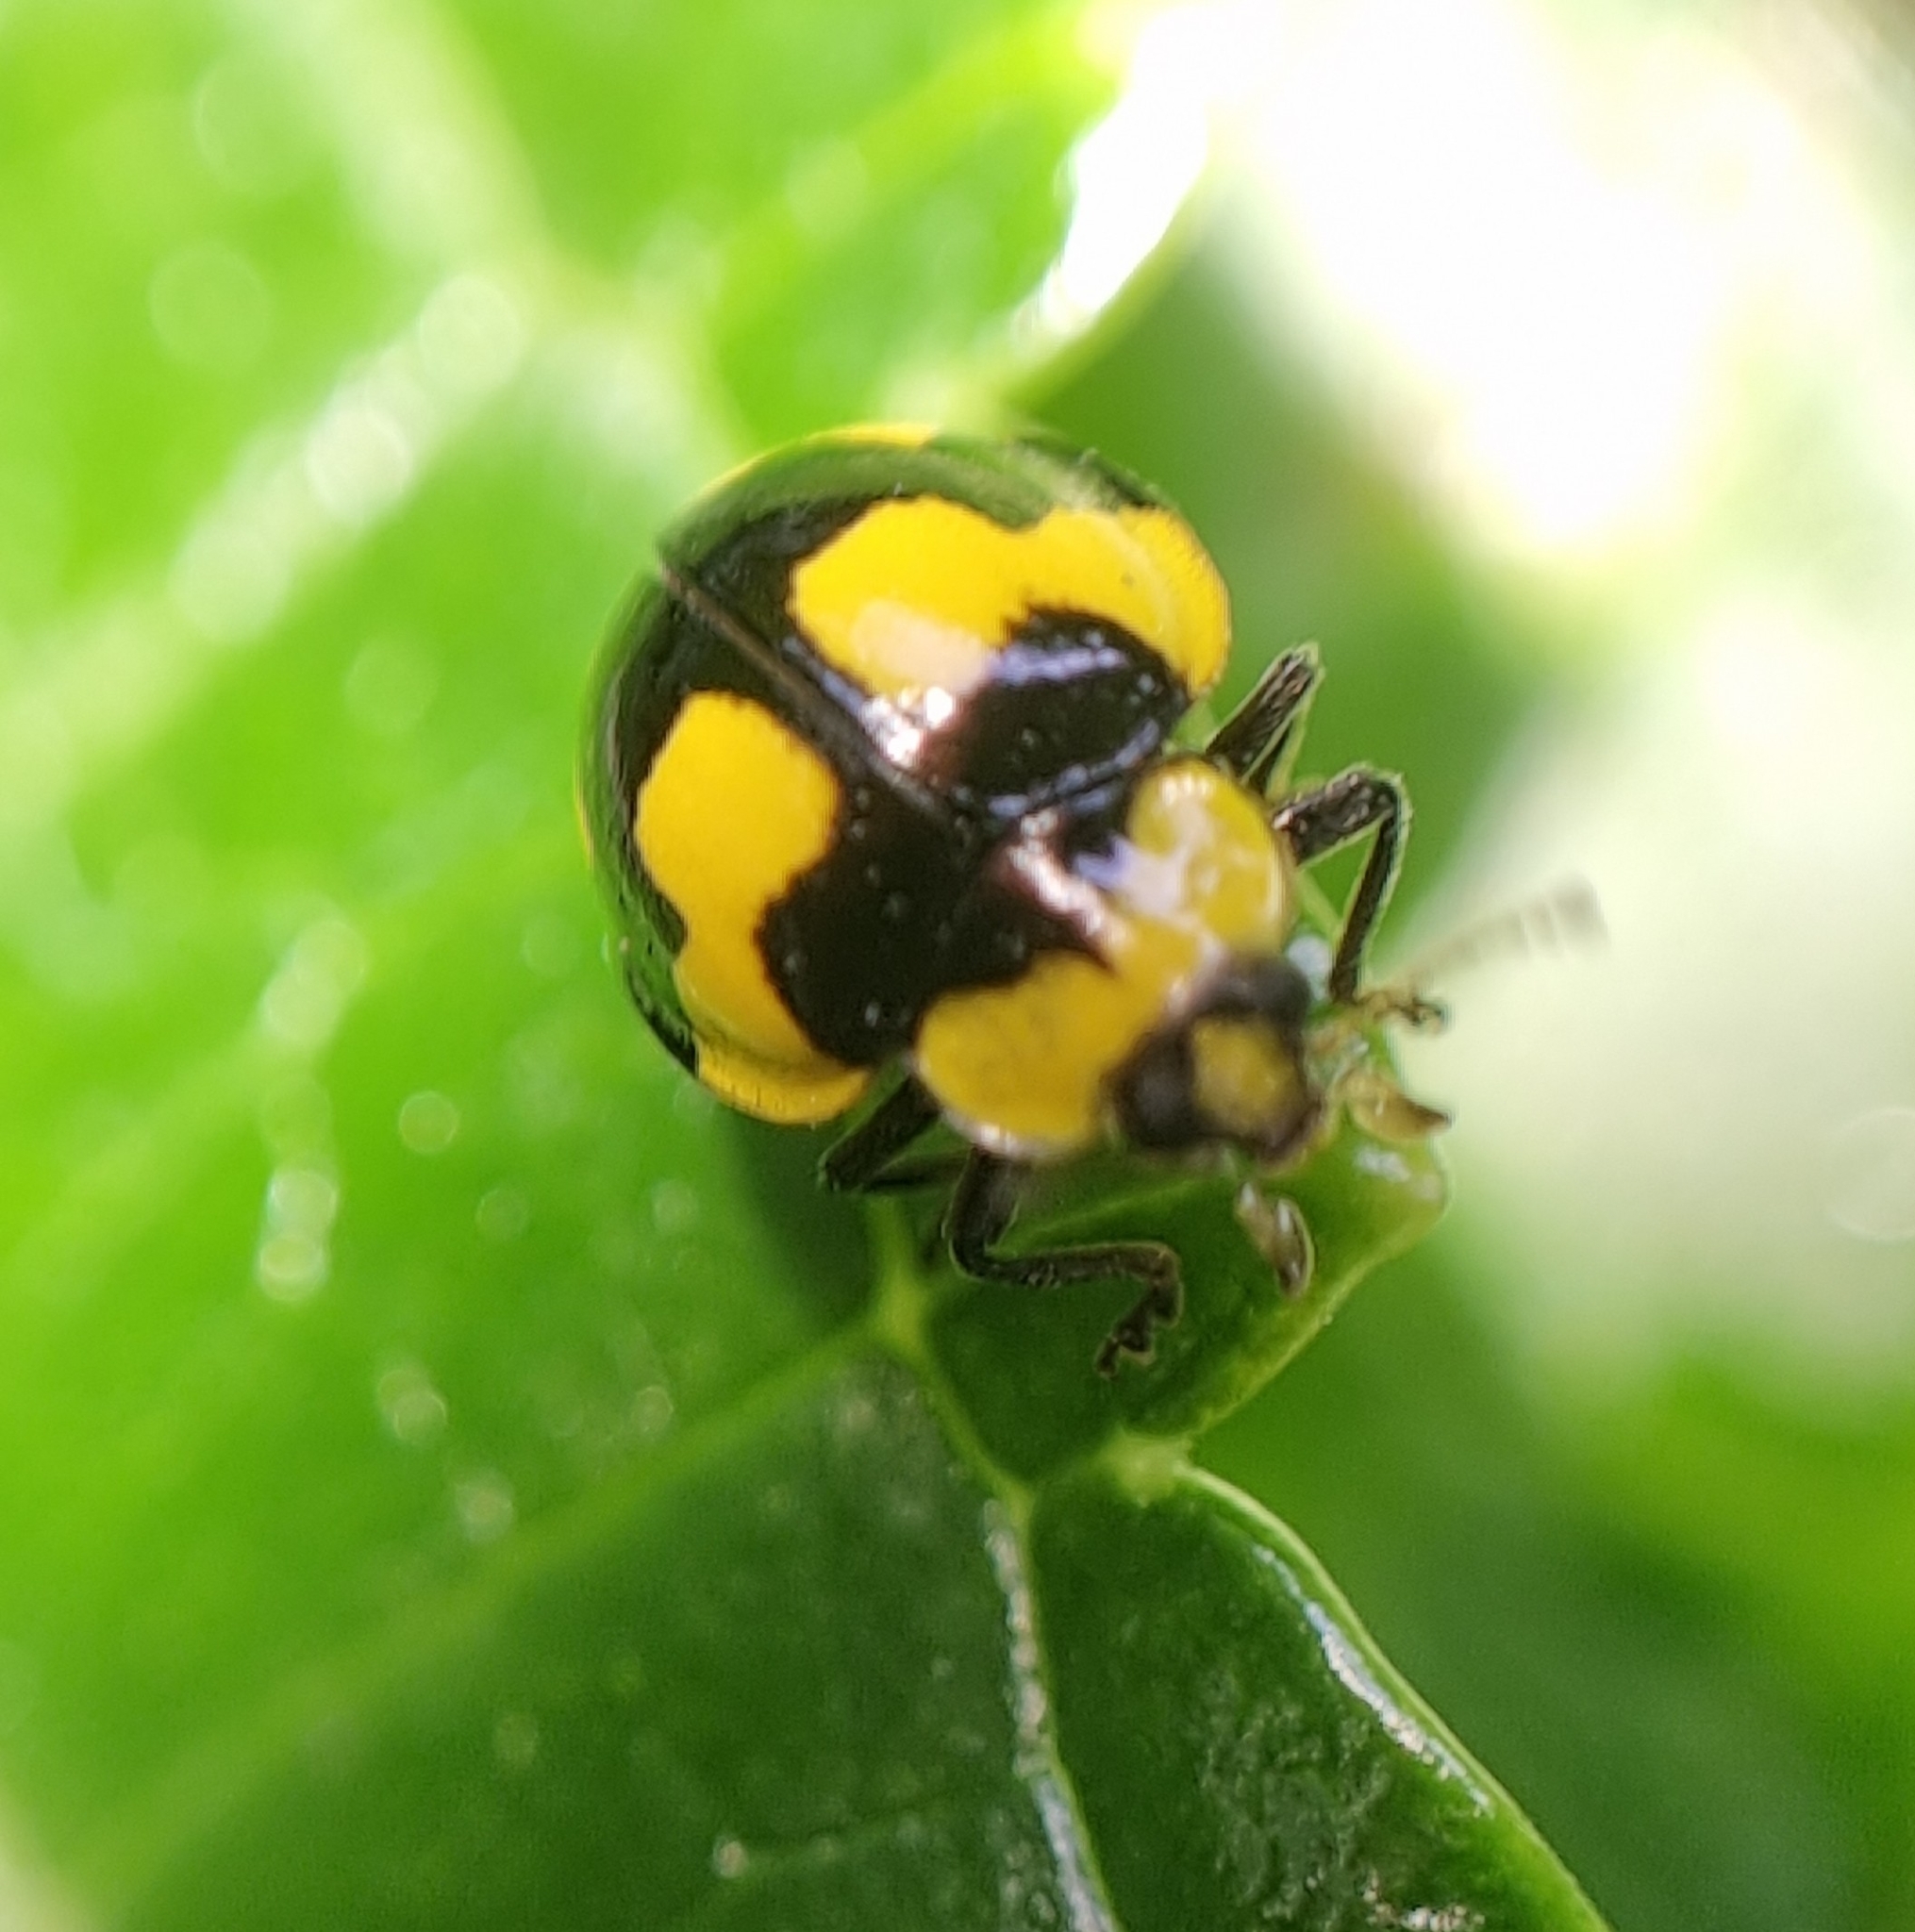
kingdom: Animalia
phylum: Arthropoda
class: Insecta
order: Coleoptera
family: Coccinellidae
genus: Illeis
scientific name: Illeis galbula
